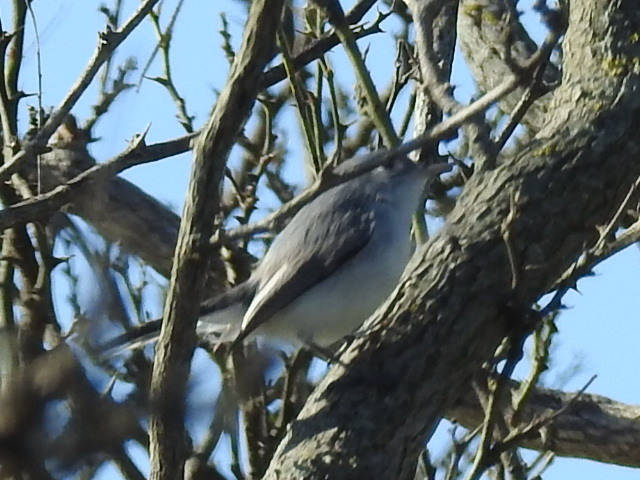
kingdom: Animalia
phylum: Chordata
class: Aves
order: Passeriformes
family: Polioptilidae
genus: Polioptila
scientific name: Polioptila caerulea
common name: Blue-gray gnatcatcher
